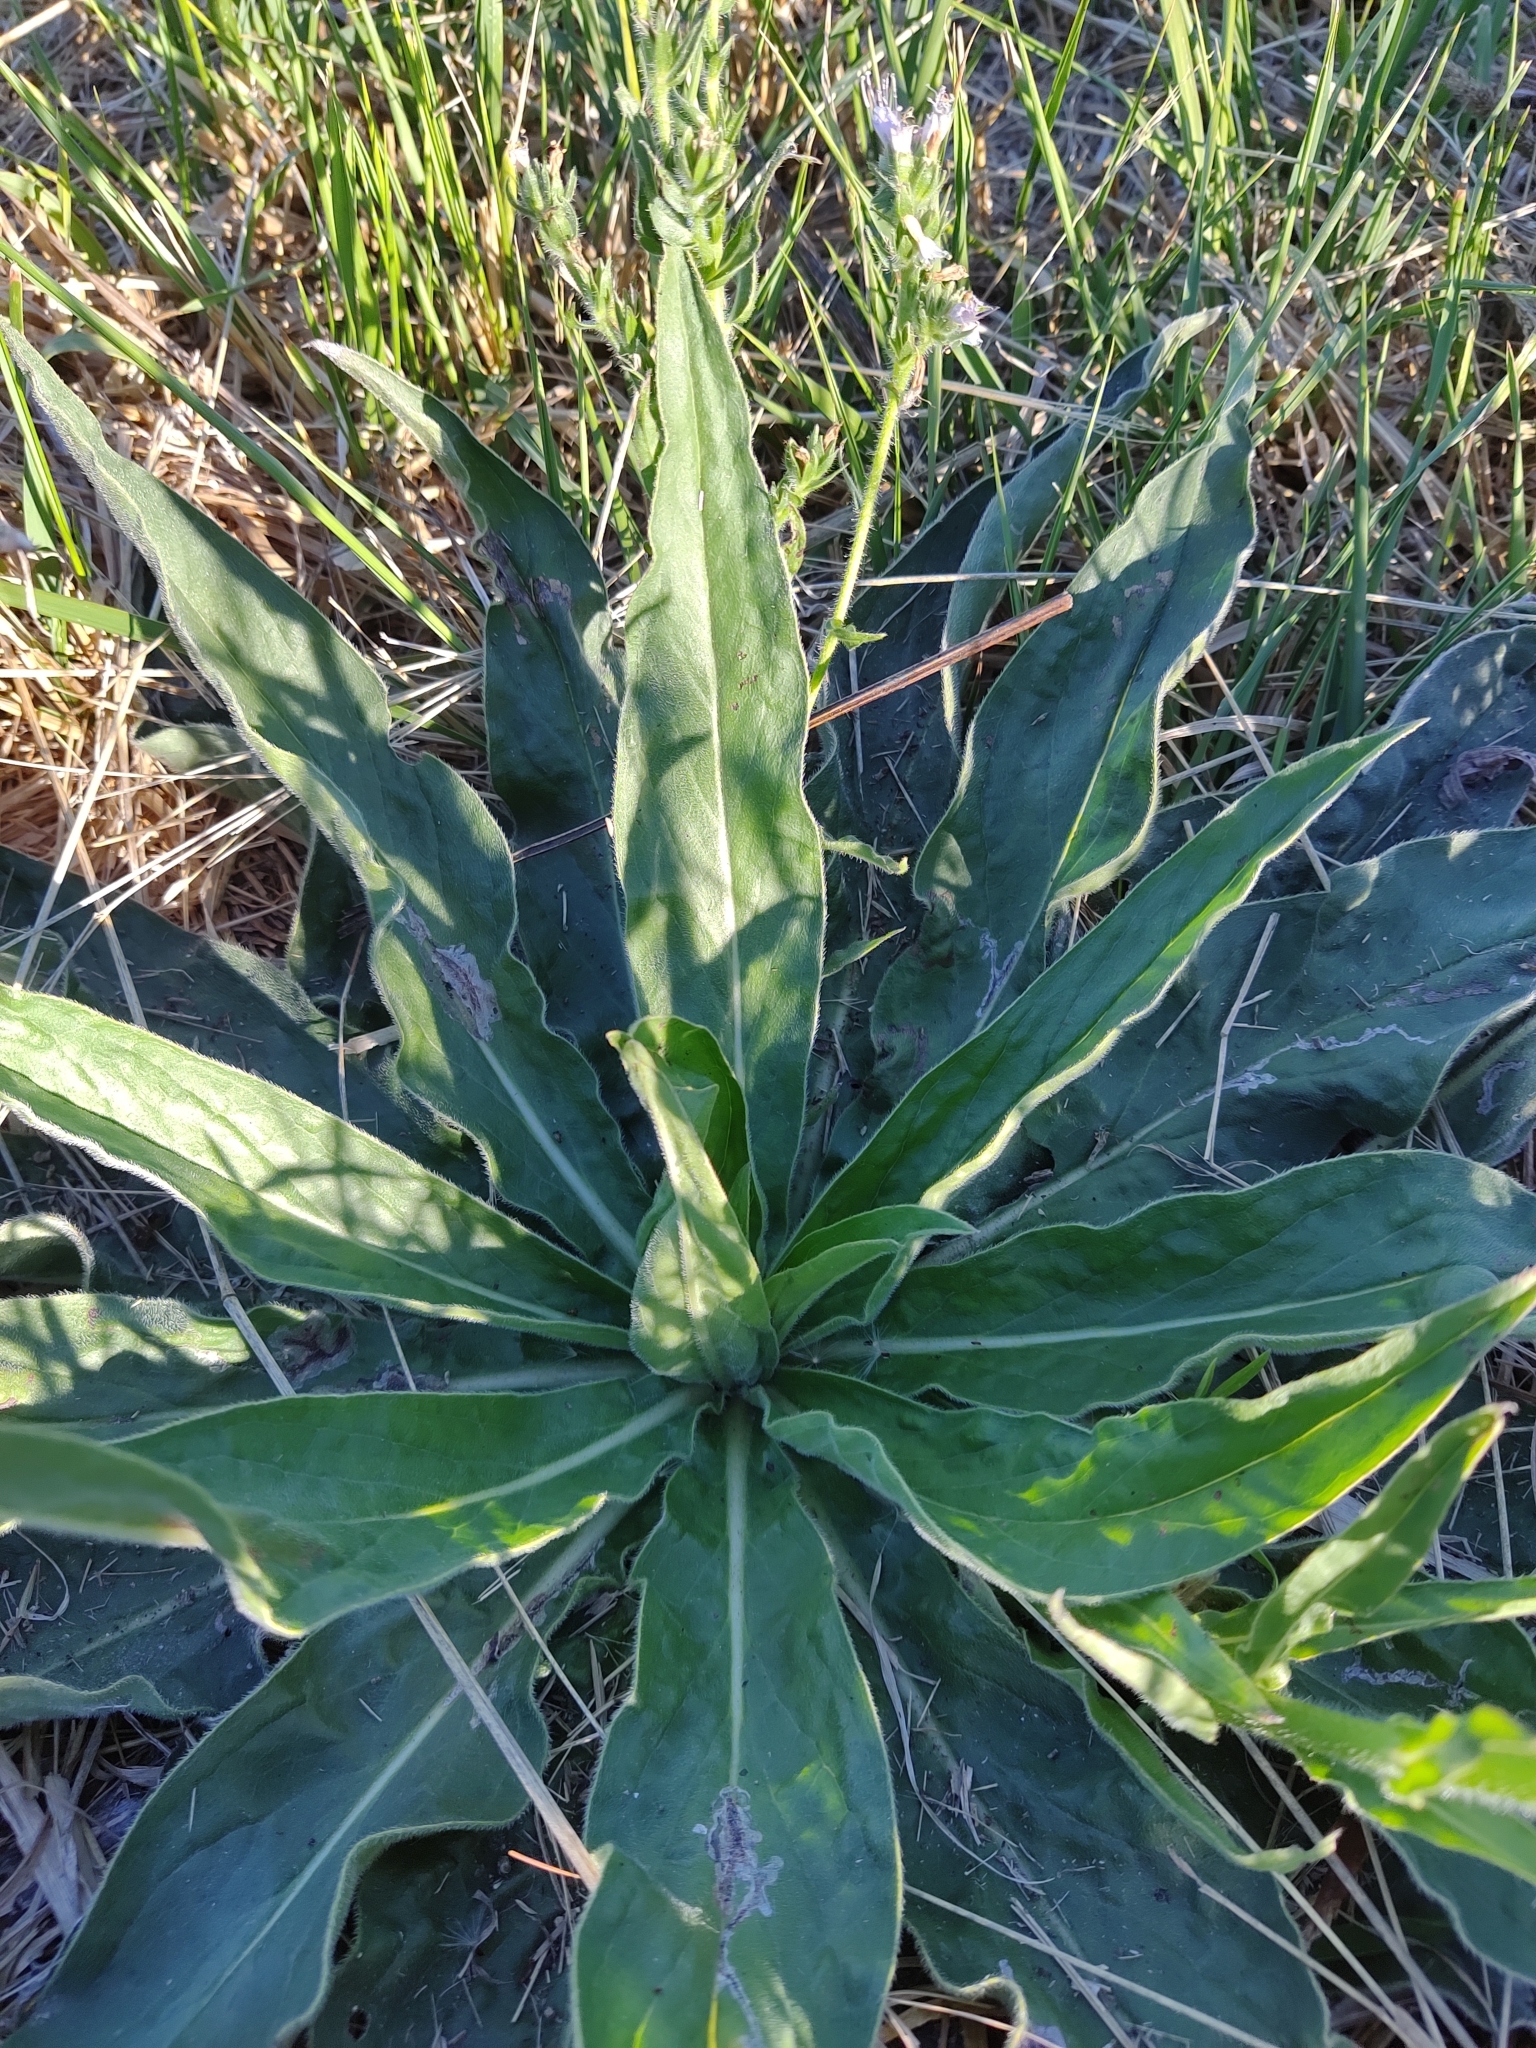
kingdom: Plantae
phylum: Tracheophyta
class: Magnoliopsida
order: Boraginales
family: Boraginaceae
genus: Echium
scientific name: Echium lusitanicum
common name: Violet-vein viper's bugloss
